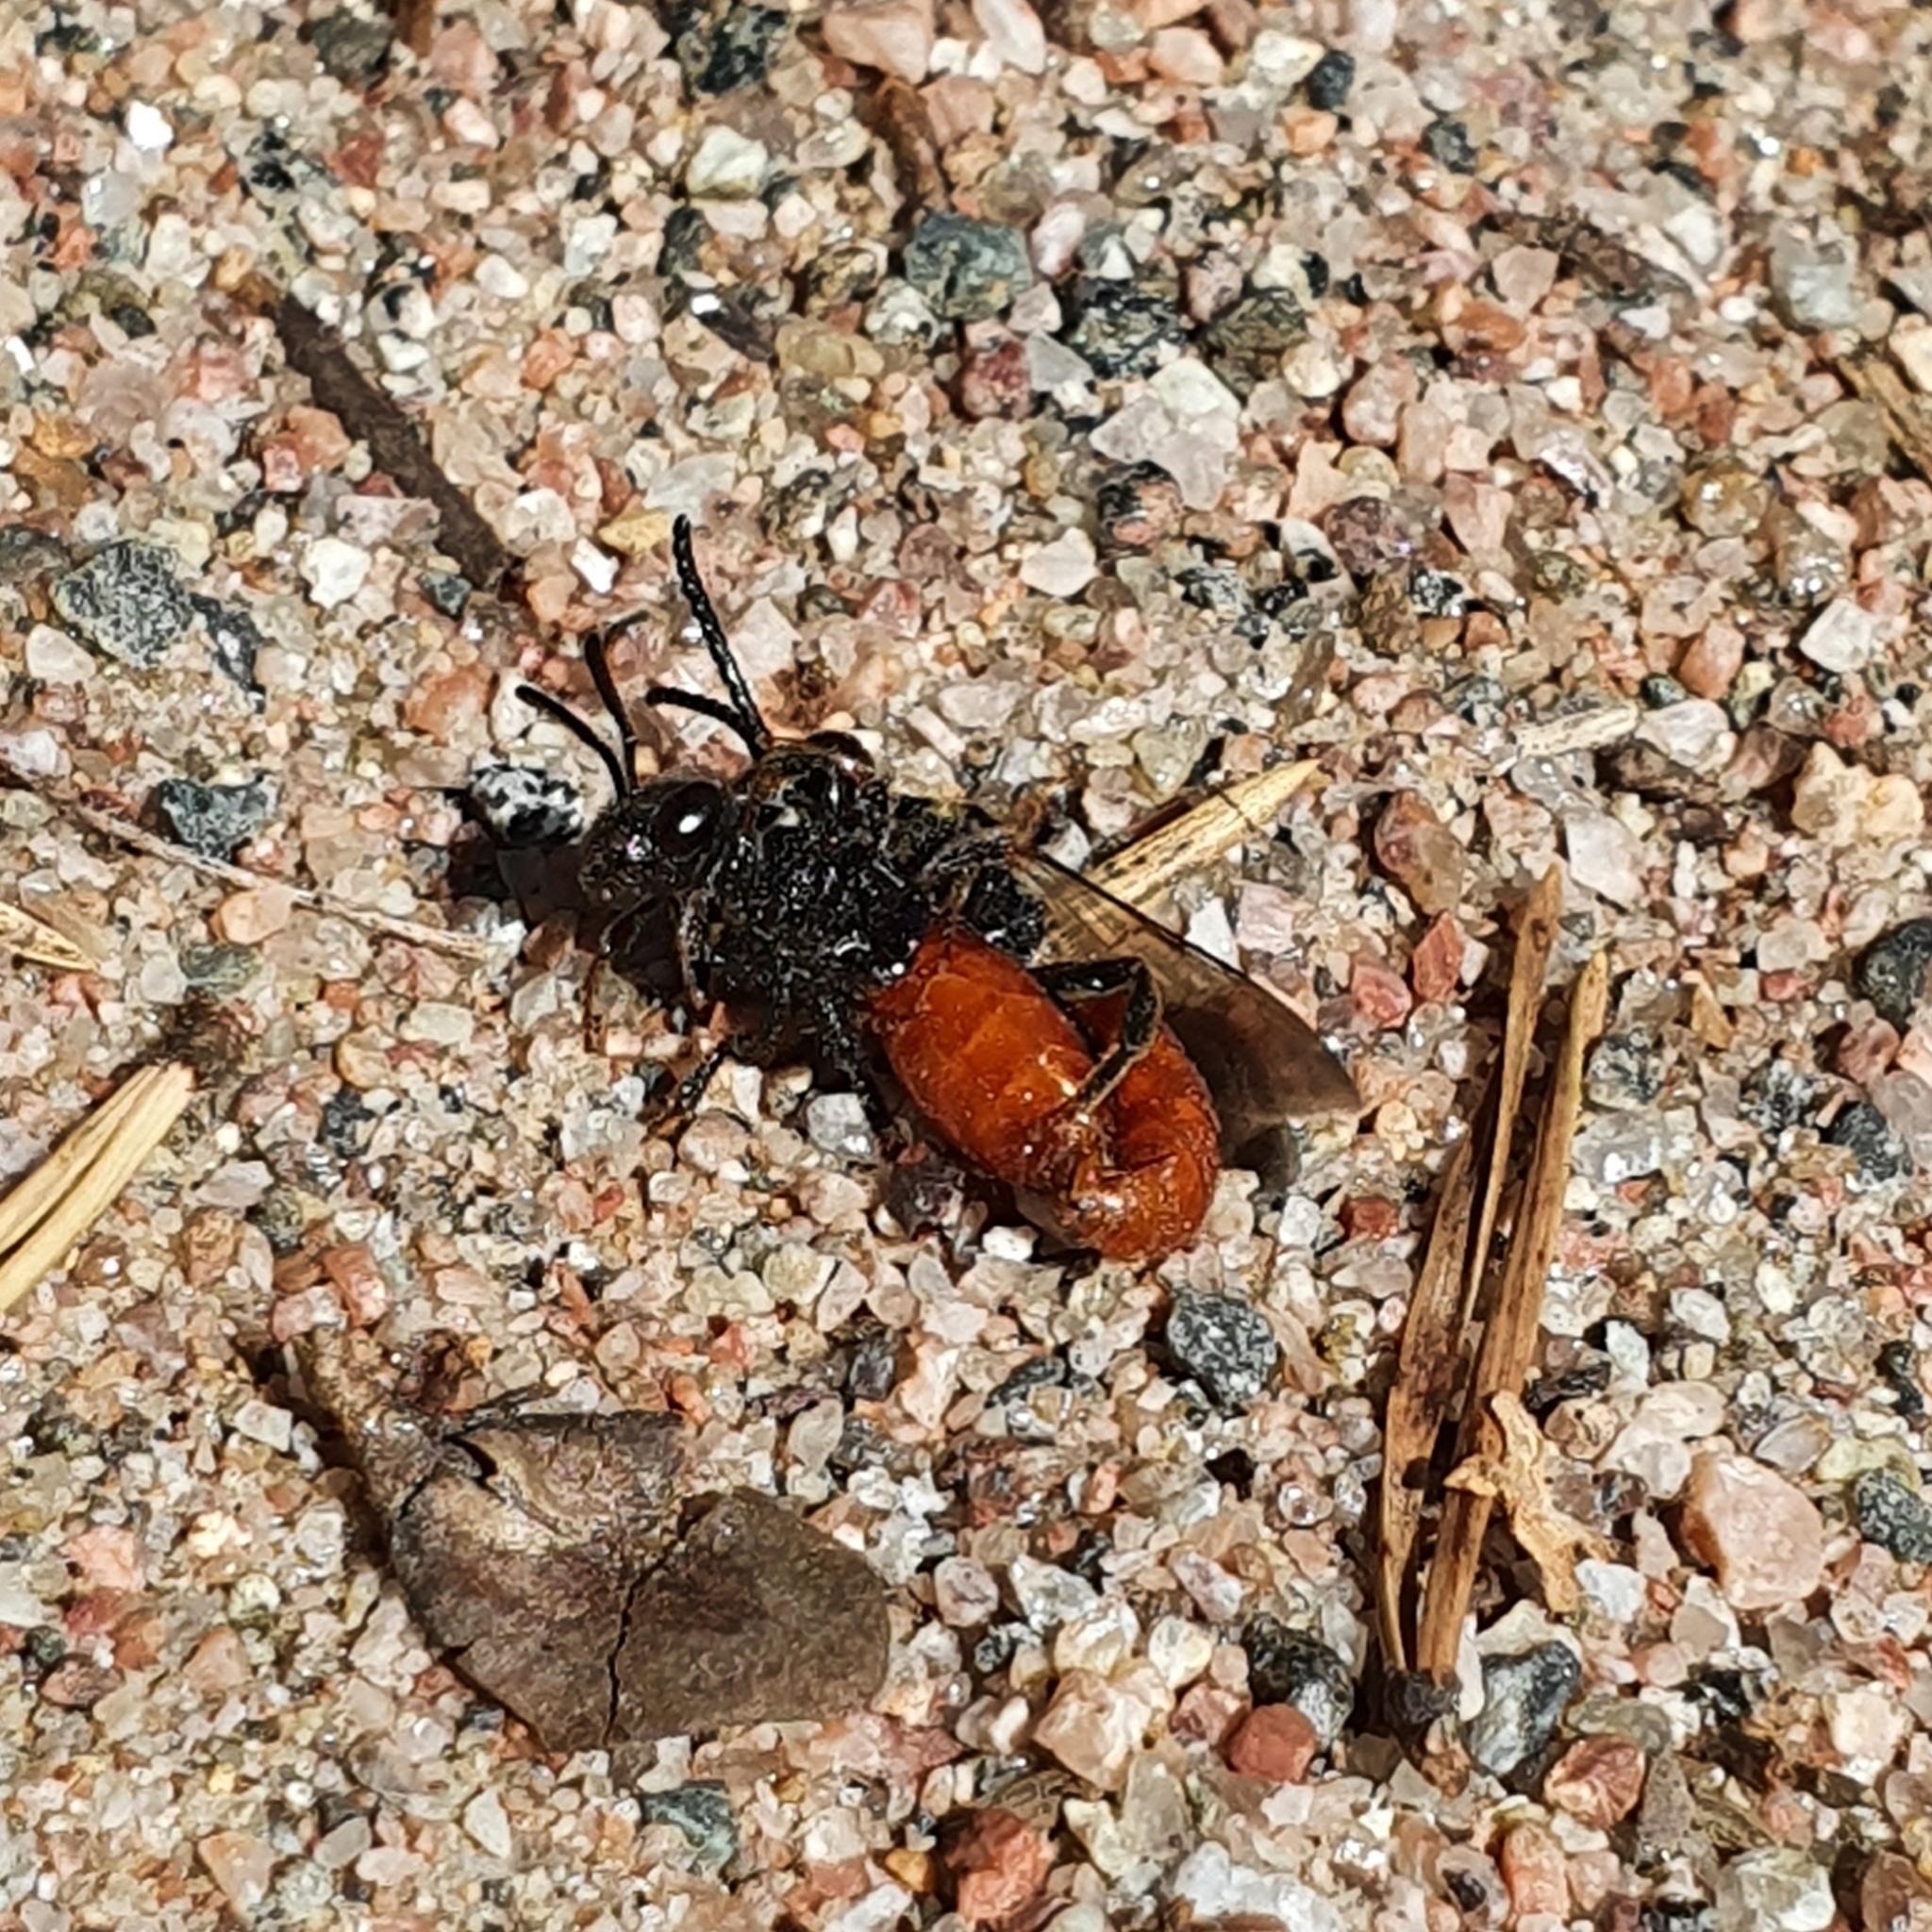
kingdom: Animalia
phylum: Arthropoda
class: Insecta
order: Hymenoptera
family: Halictidae
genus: Sphecodes
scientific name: Sphecodes albilabris
